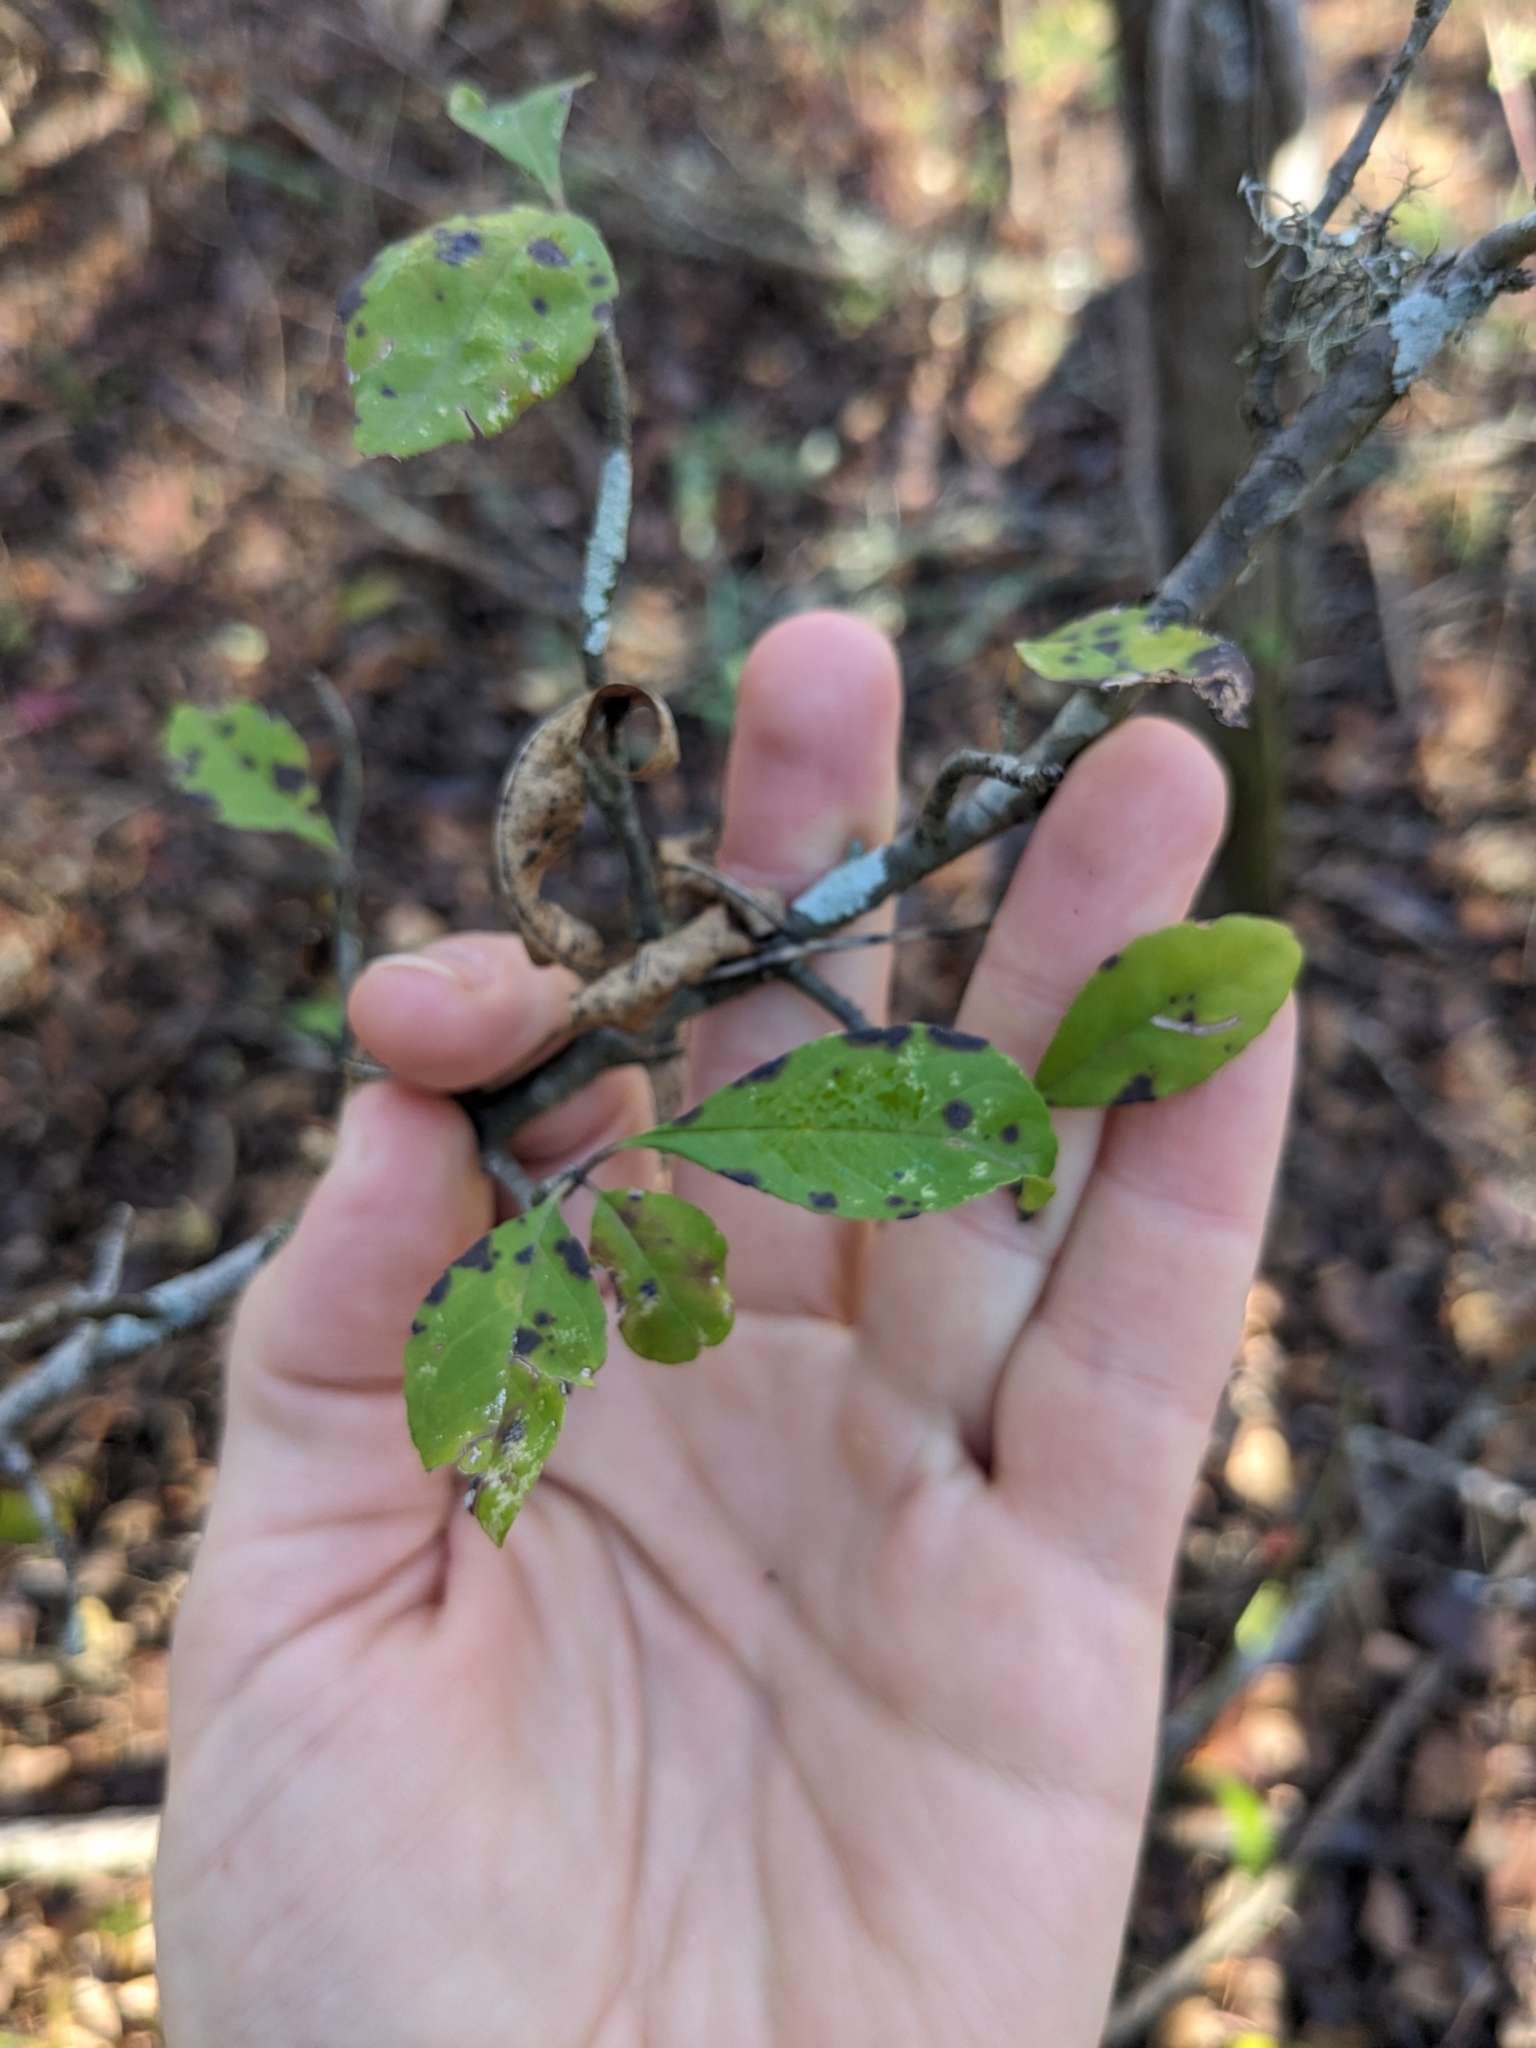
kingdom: Plantae
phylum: Tracheophyta
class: Magnoliopsida
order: Aquifoliales
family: Aquifoliaceae
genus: Ilex
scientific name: Ilex decidua
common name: Possum-haw
